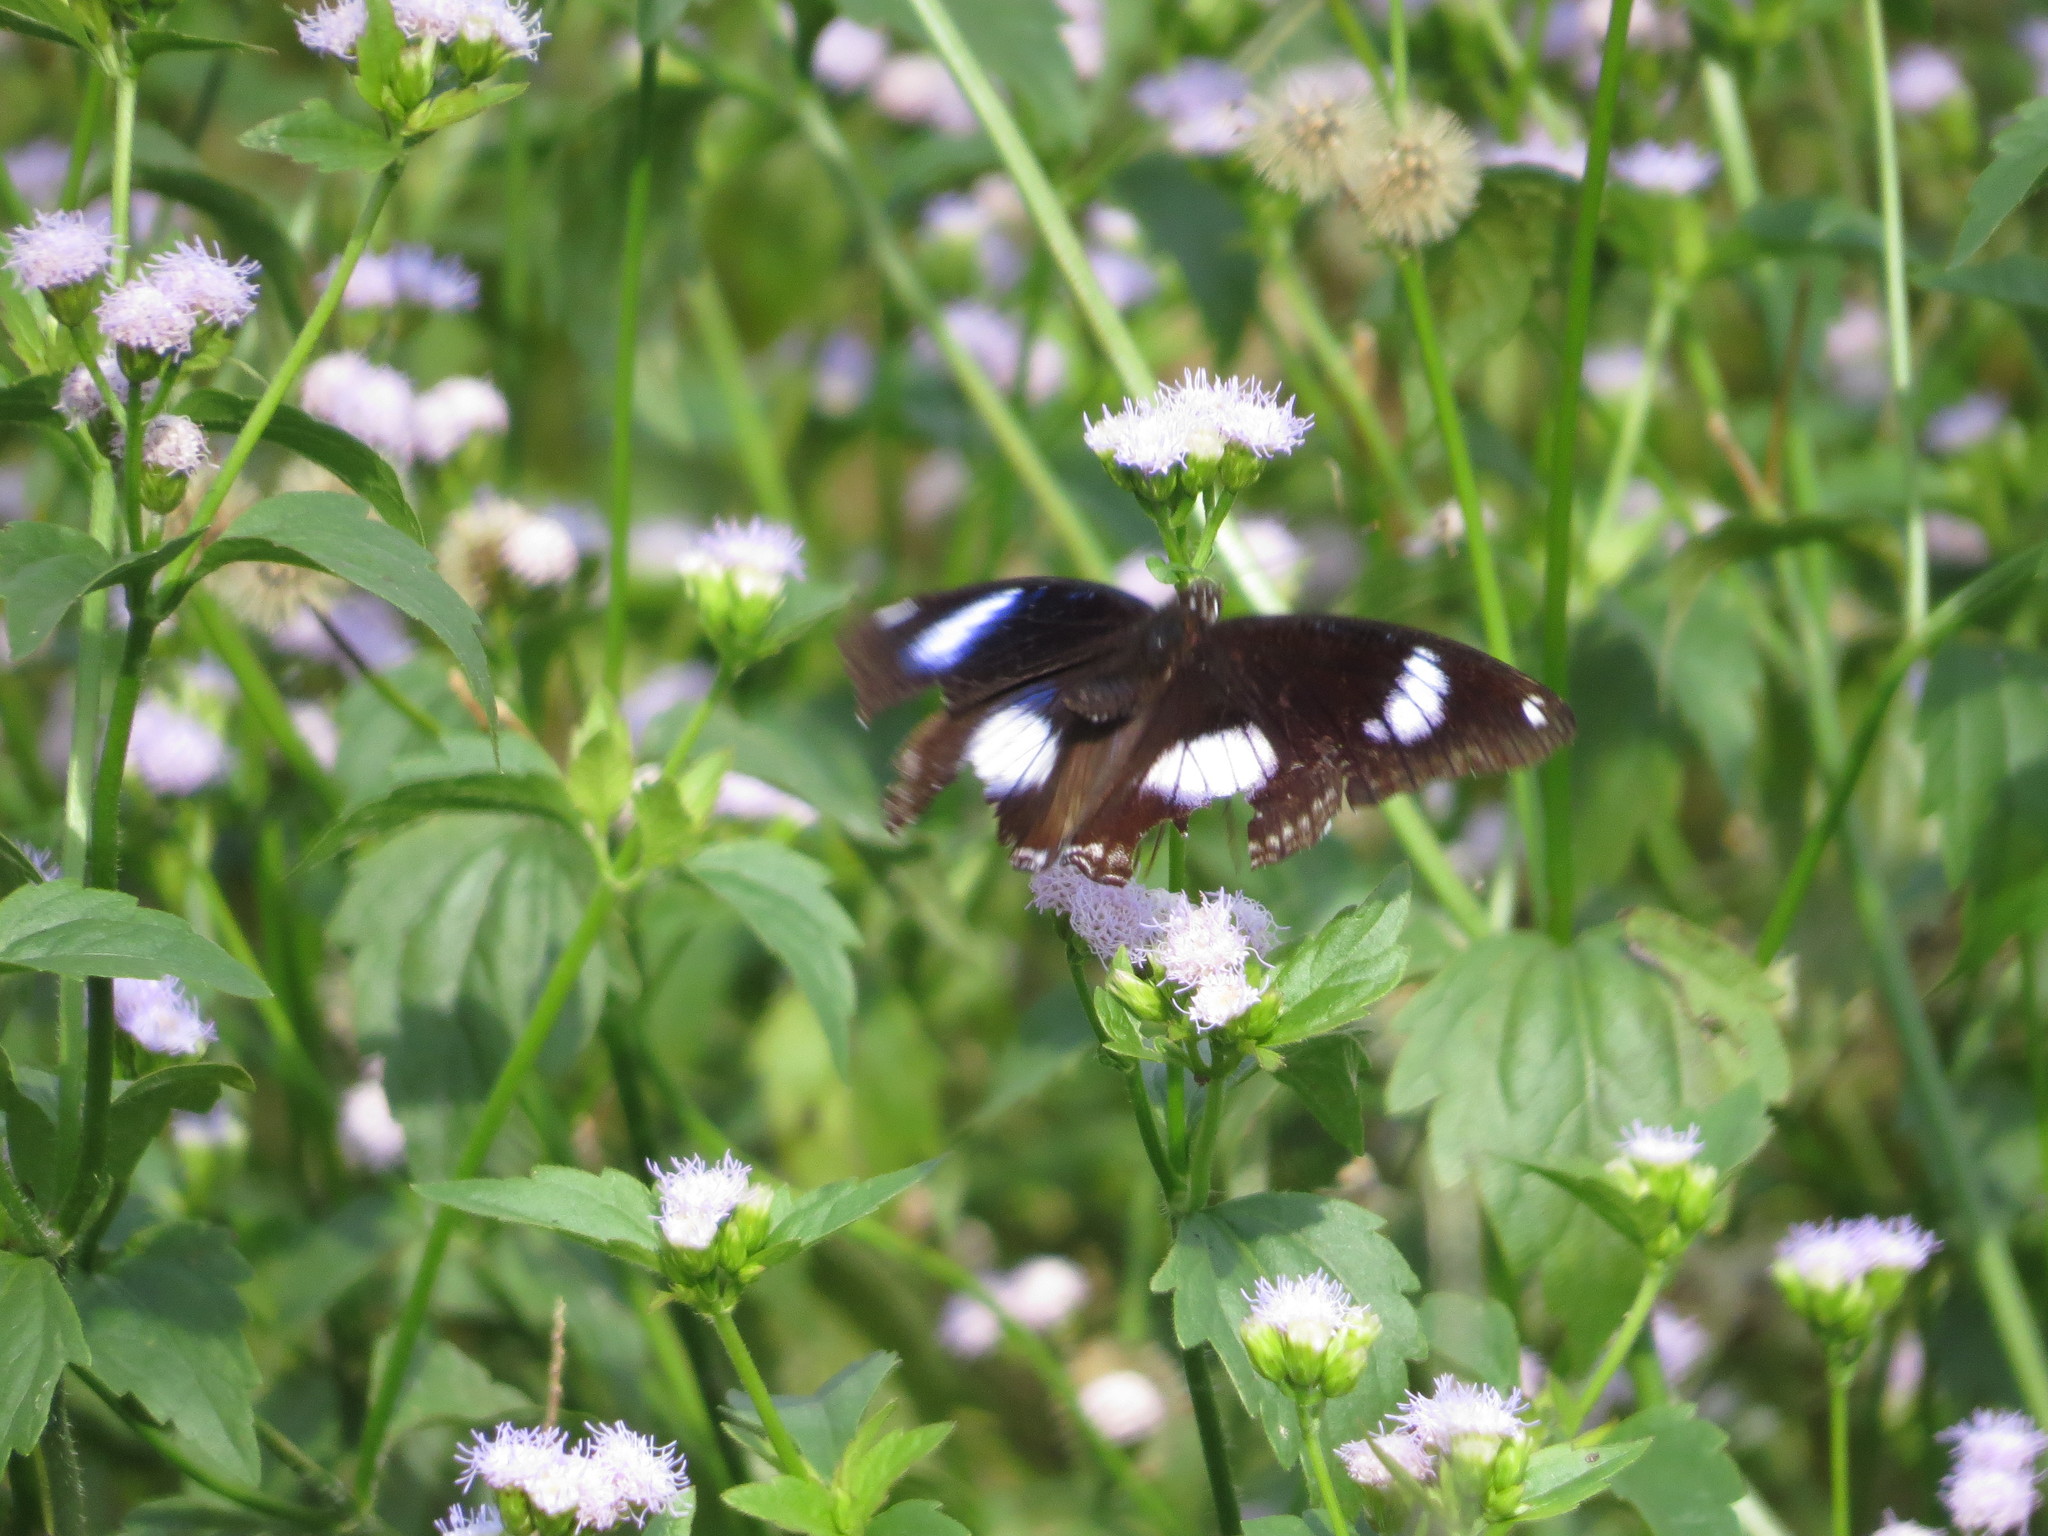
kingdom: Animalia
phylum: Arthropoda
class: Insecta
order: Lepidoptera
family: Nymphalidae
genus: Hypolimnas
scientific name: Hypolimnas bolina
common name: Great eggfly
